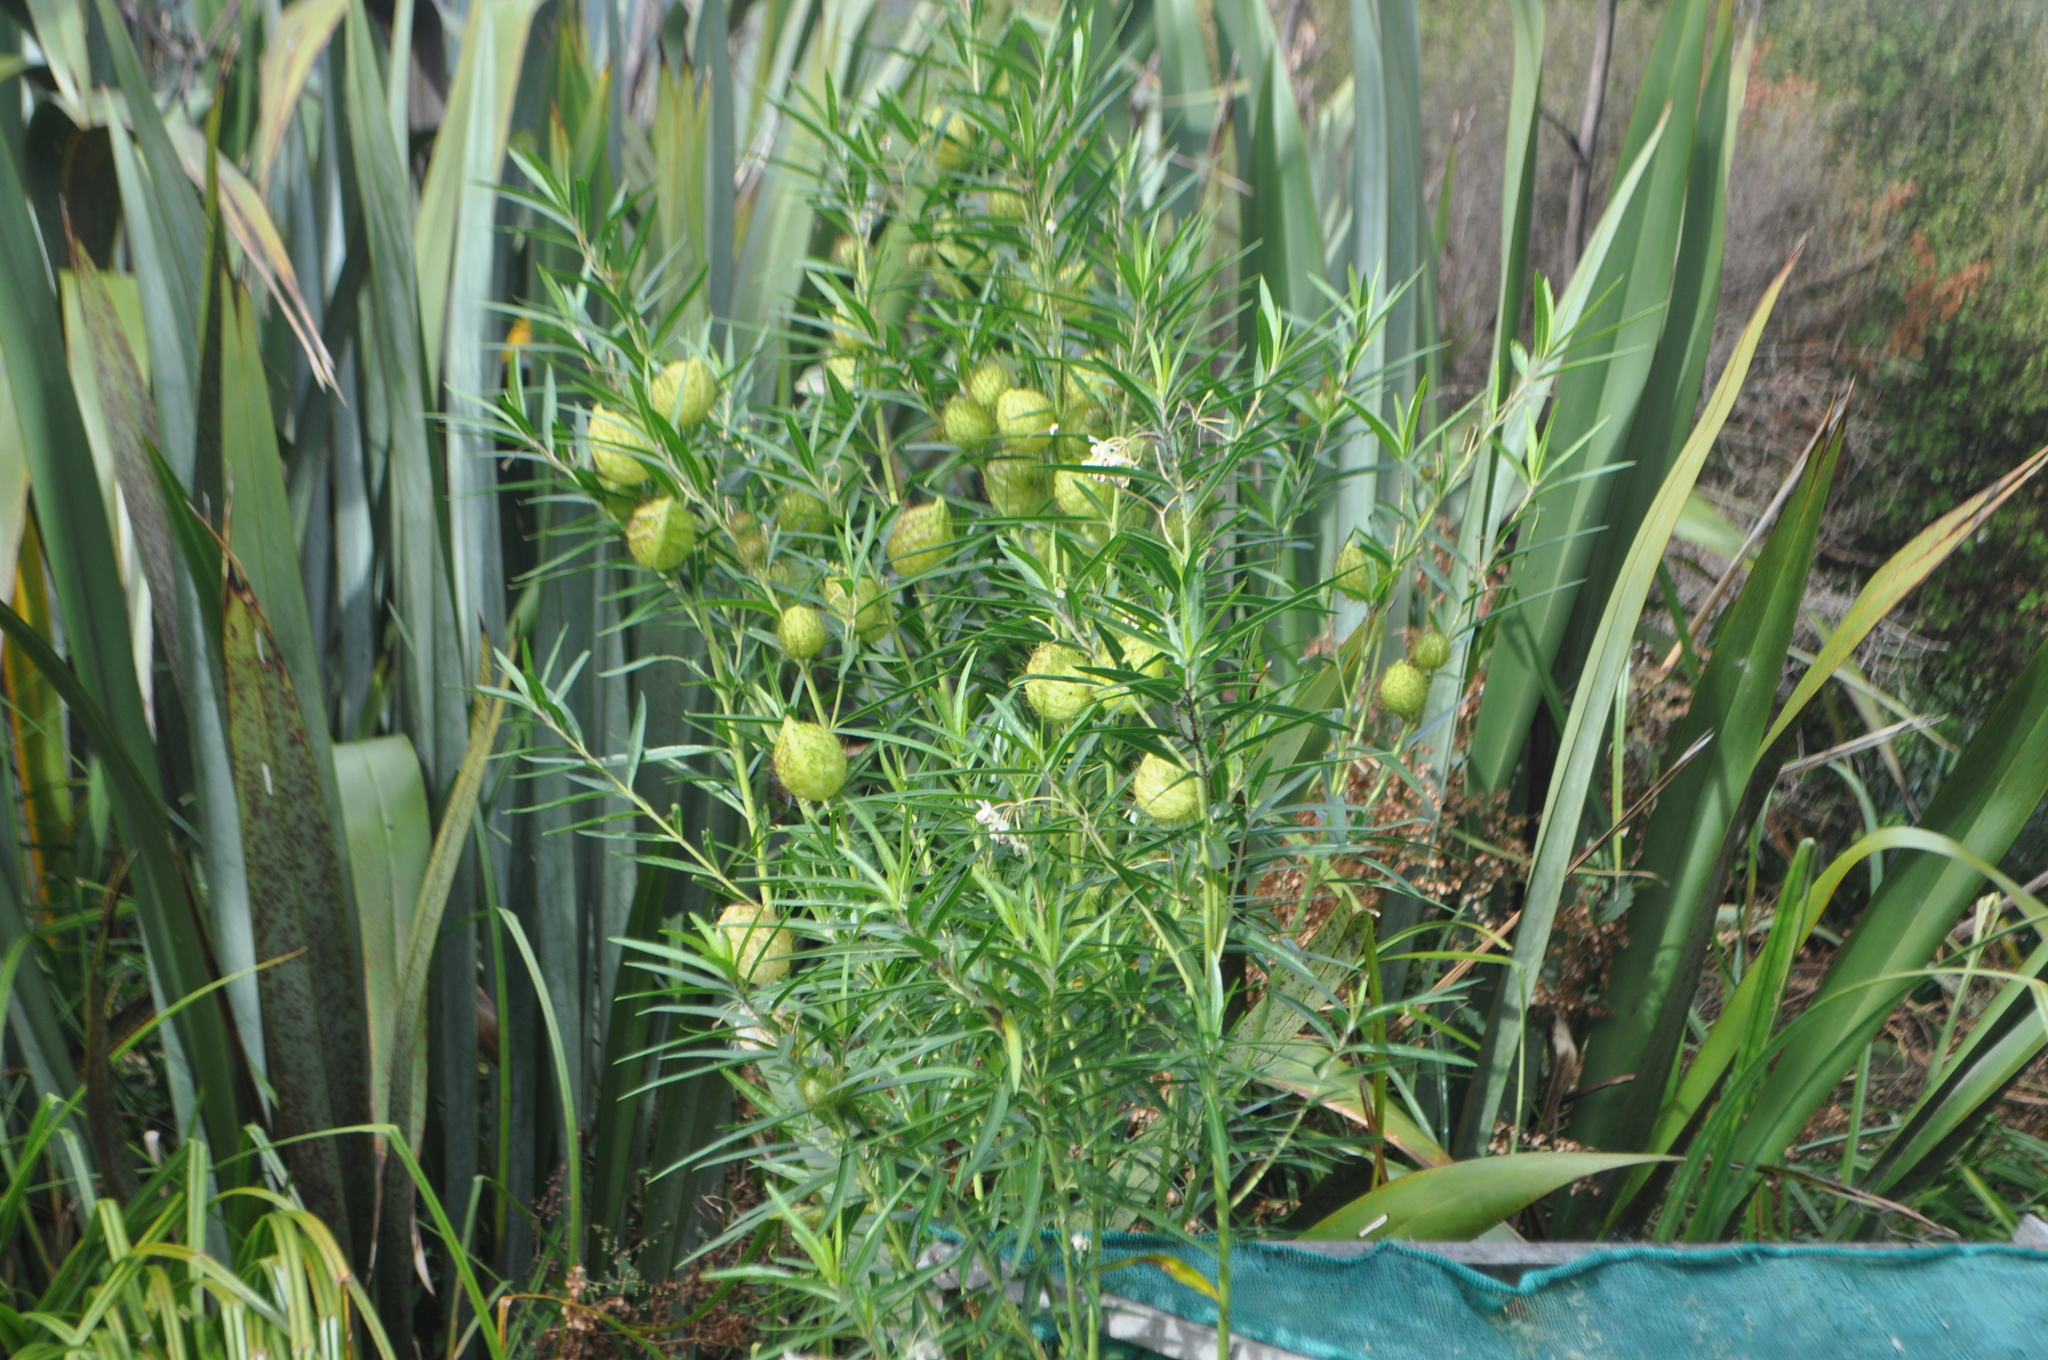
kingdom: Plantae
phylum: Tracheophyta
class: Magnoliopsida
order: Gentianales
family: Apocynaceae
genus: Gomphocarpus
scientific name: Gomphocarpus fruticosus
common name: Milkweed
